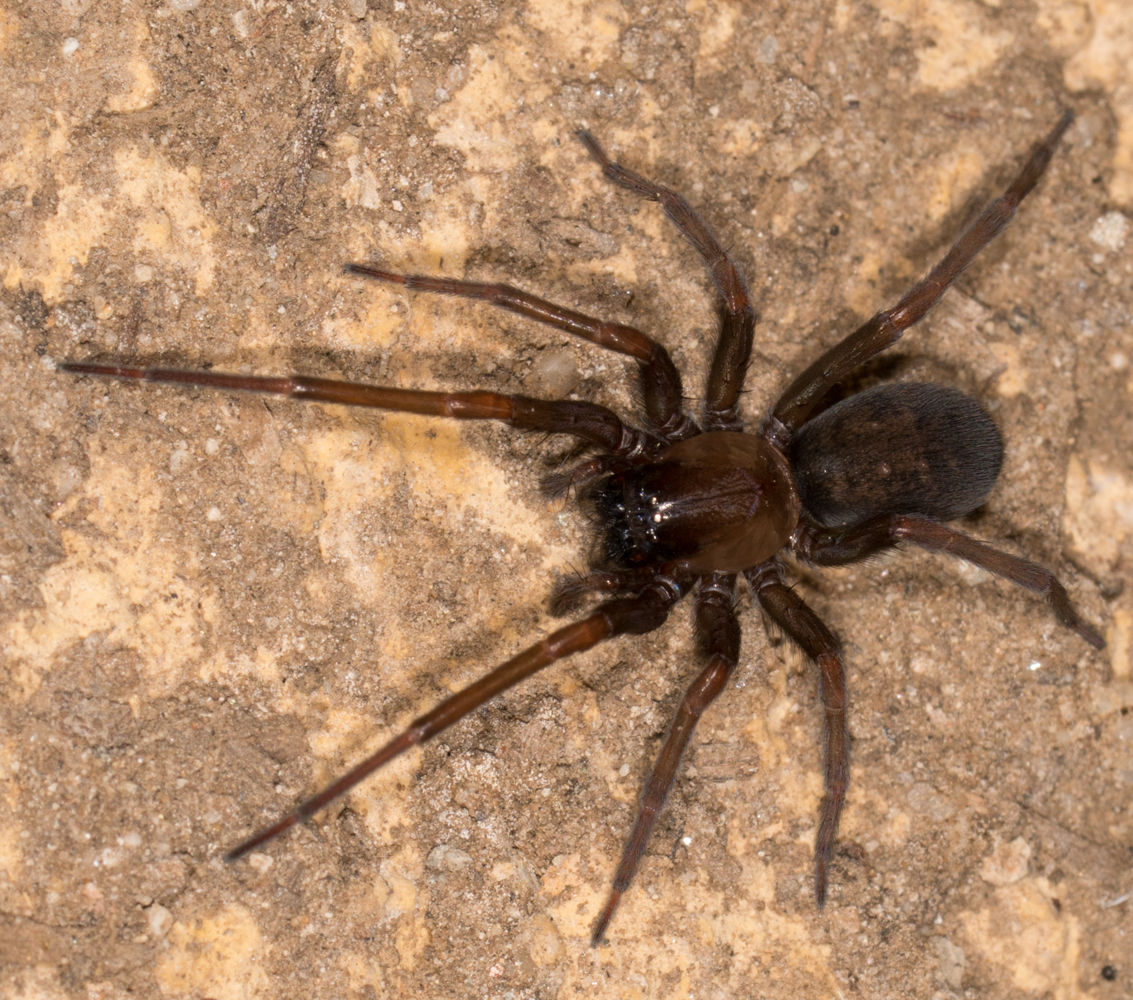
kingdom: Animalia
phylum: Arthropoda
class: Arachnida
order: Araneae
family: Desidae
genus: Metaltella
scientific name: Metaltella simoni
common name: Cribellate spider
